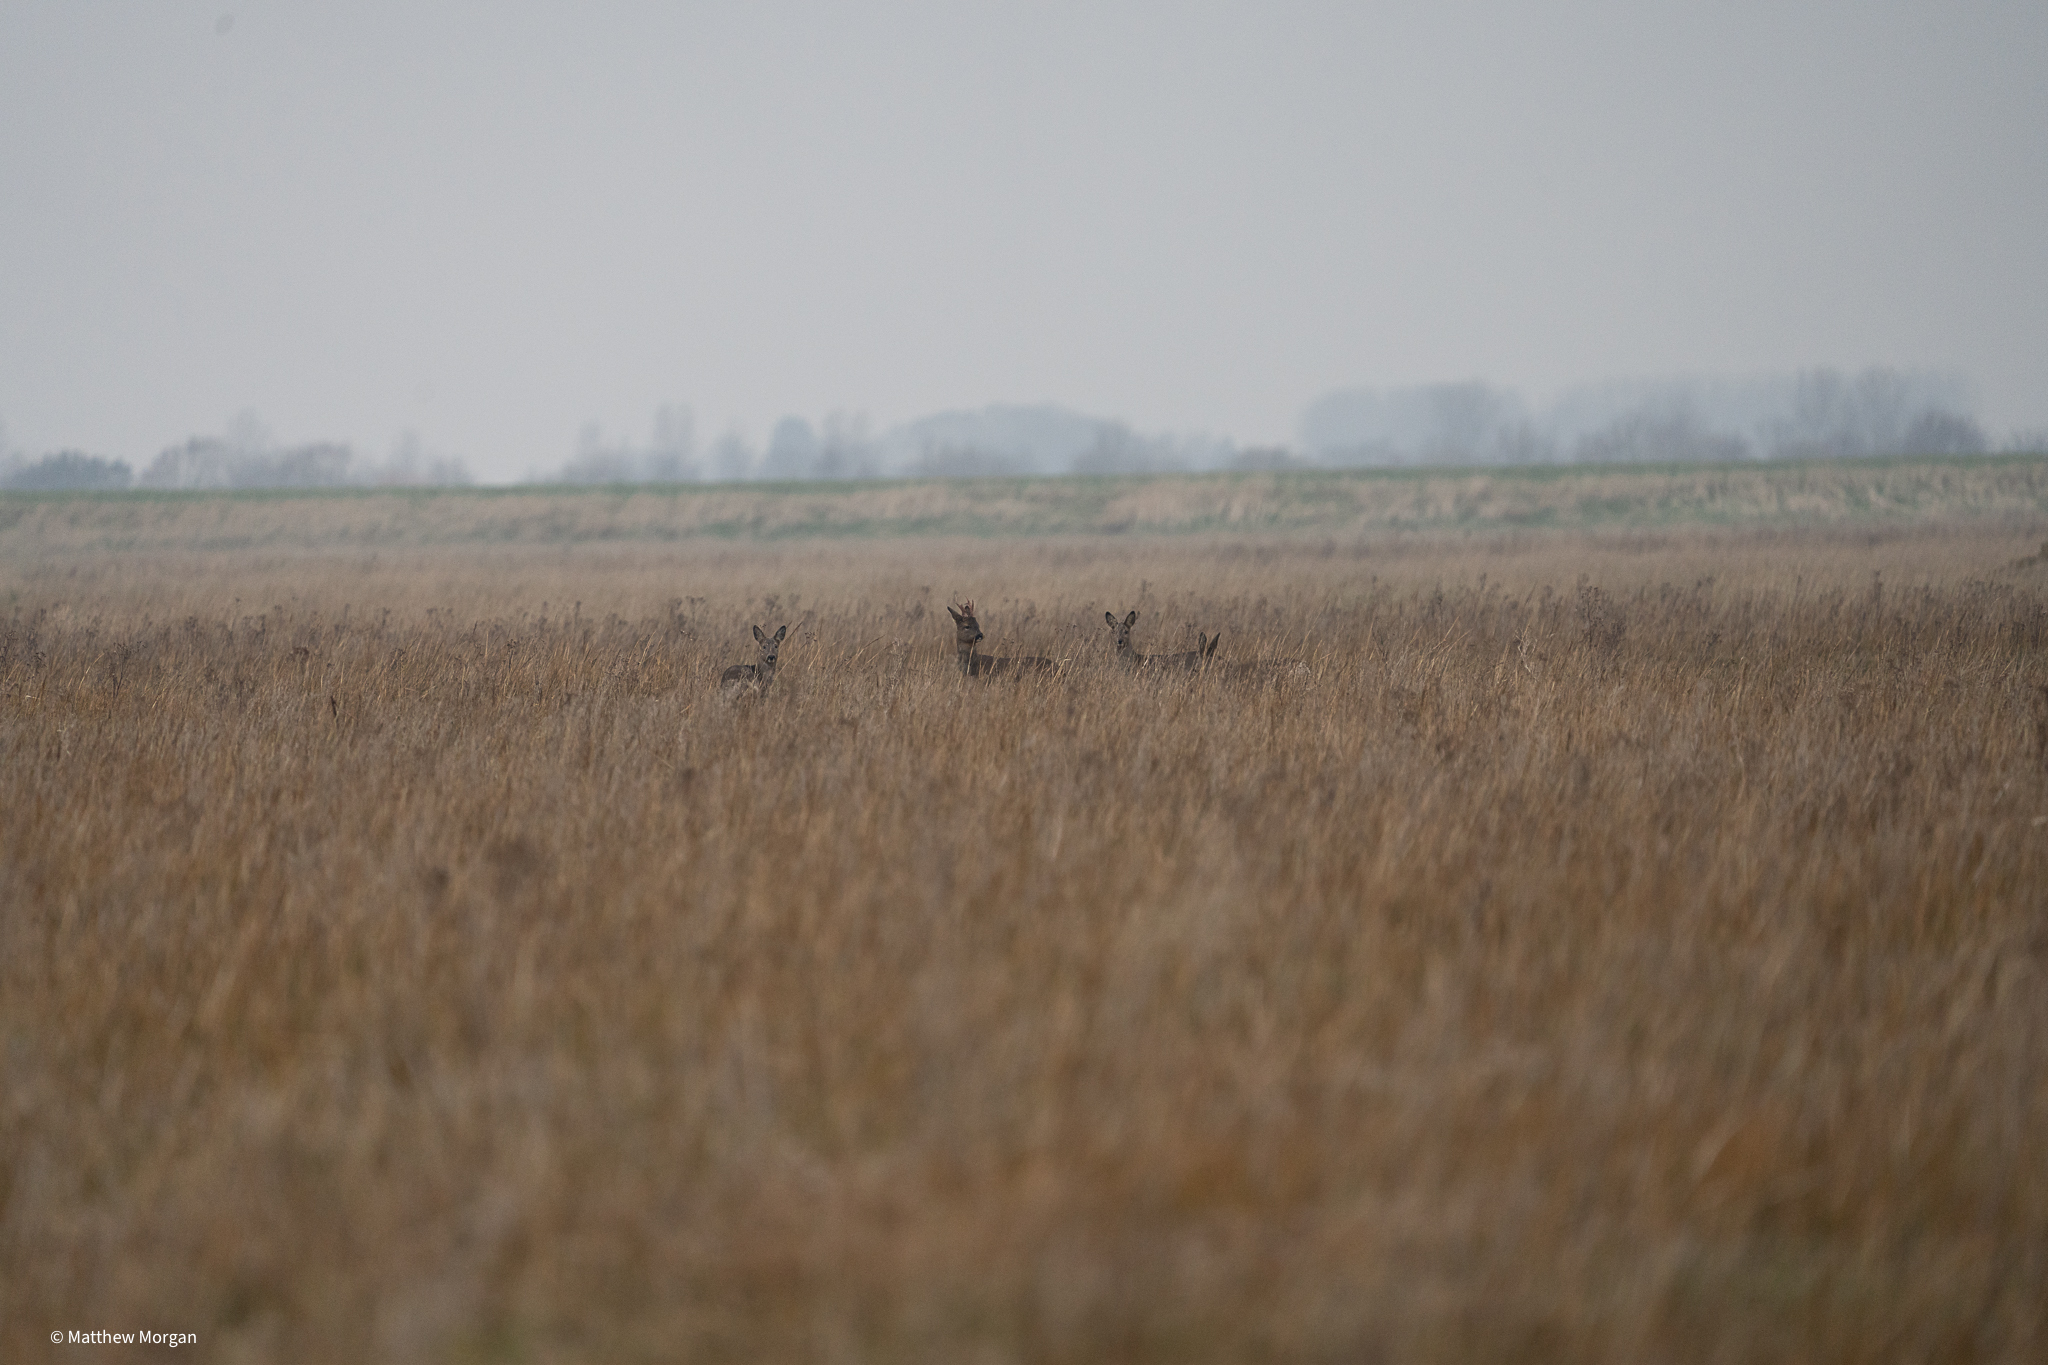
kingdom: Animalia
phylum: Chordata
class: Mammalia
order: Artiodactyla
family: Cervidae
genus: Capreolus
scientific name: Capreolus capreolus
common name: Western roe deer
